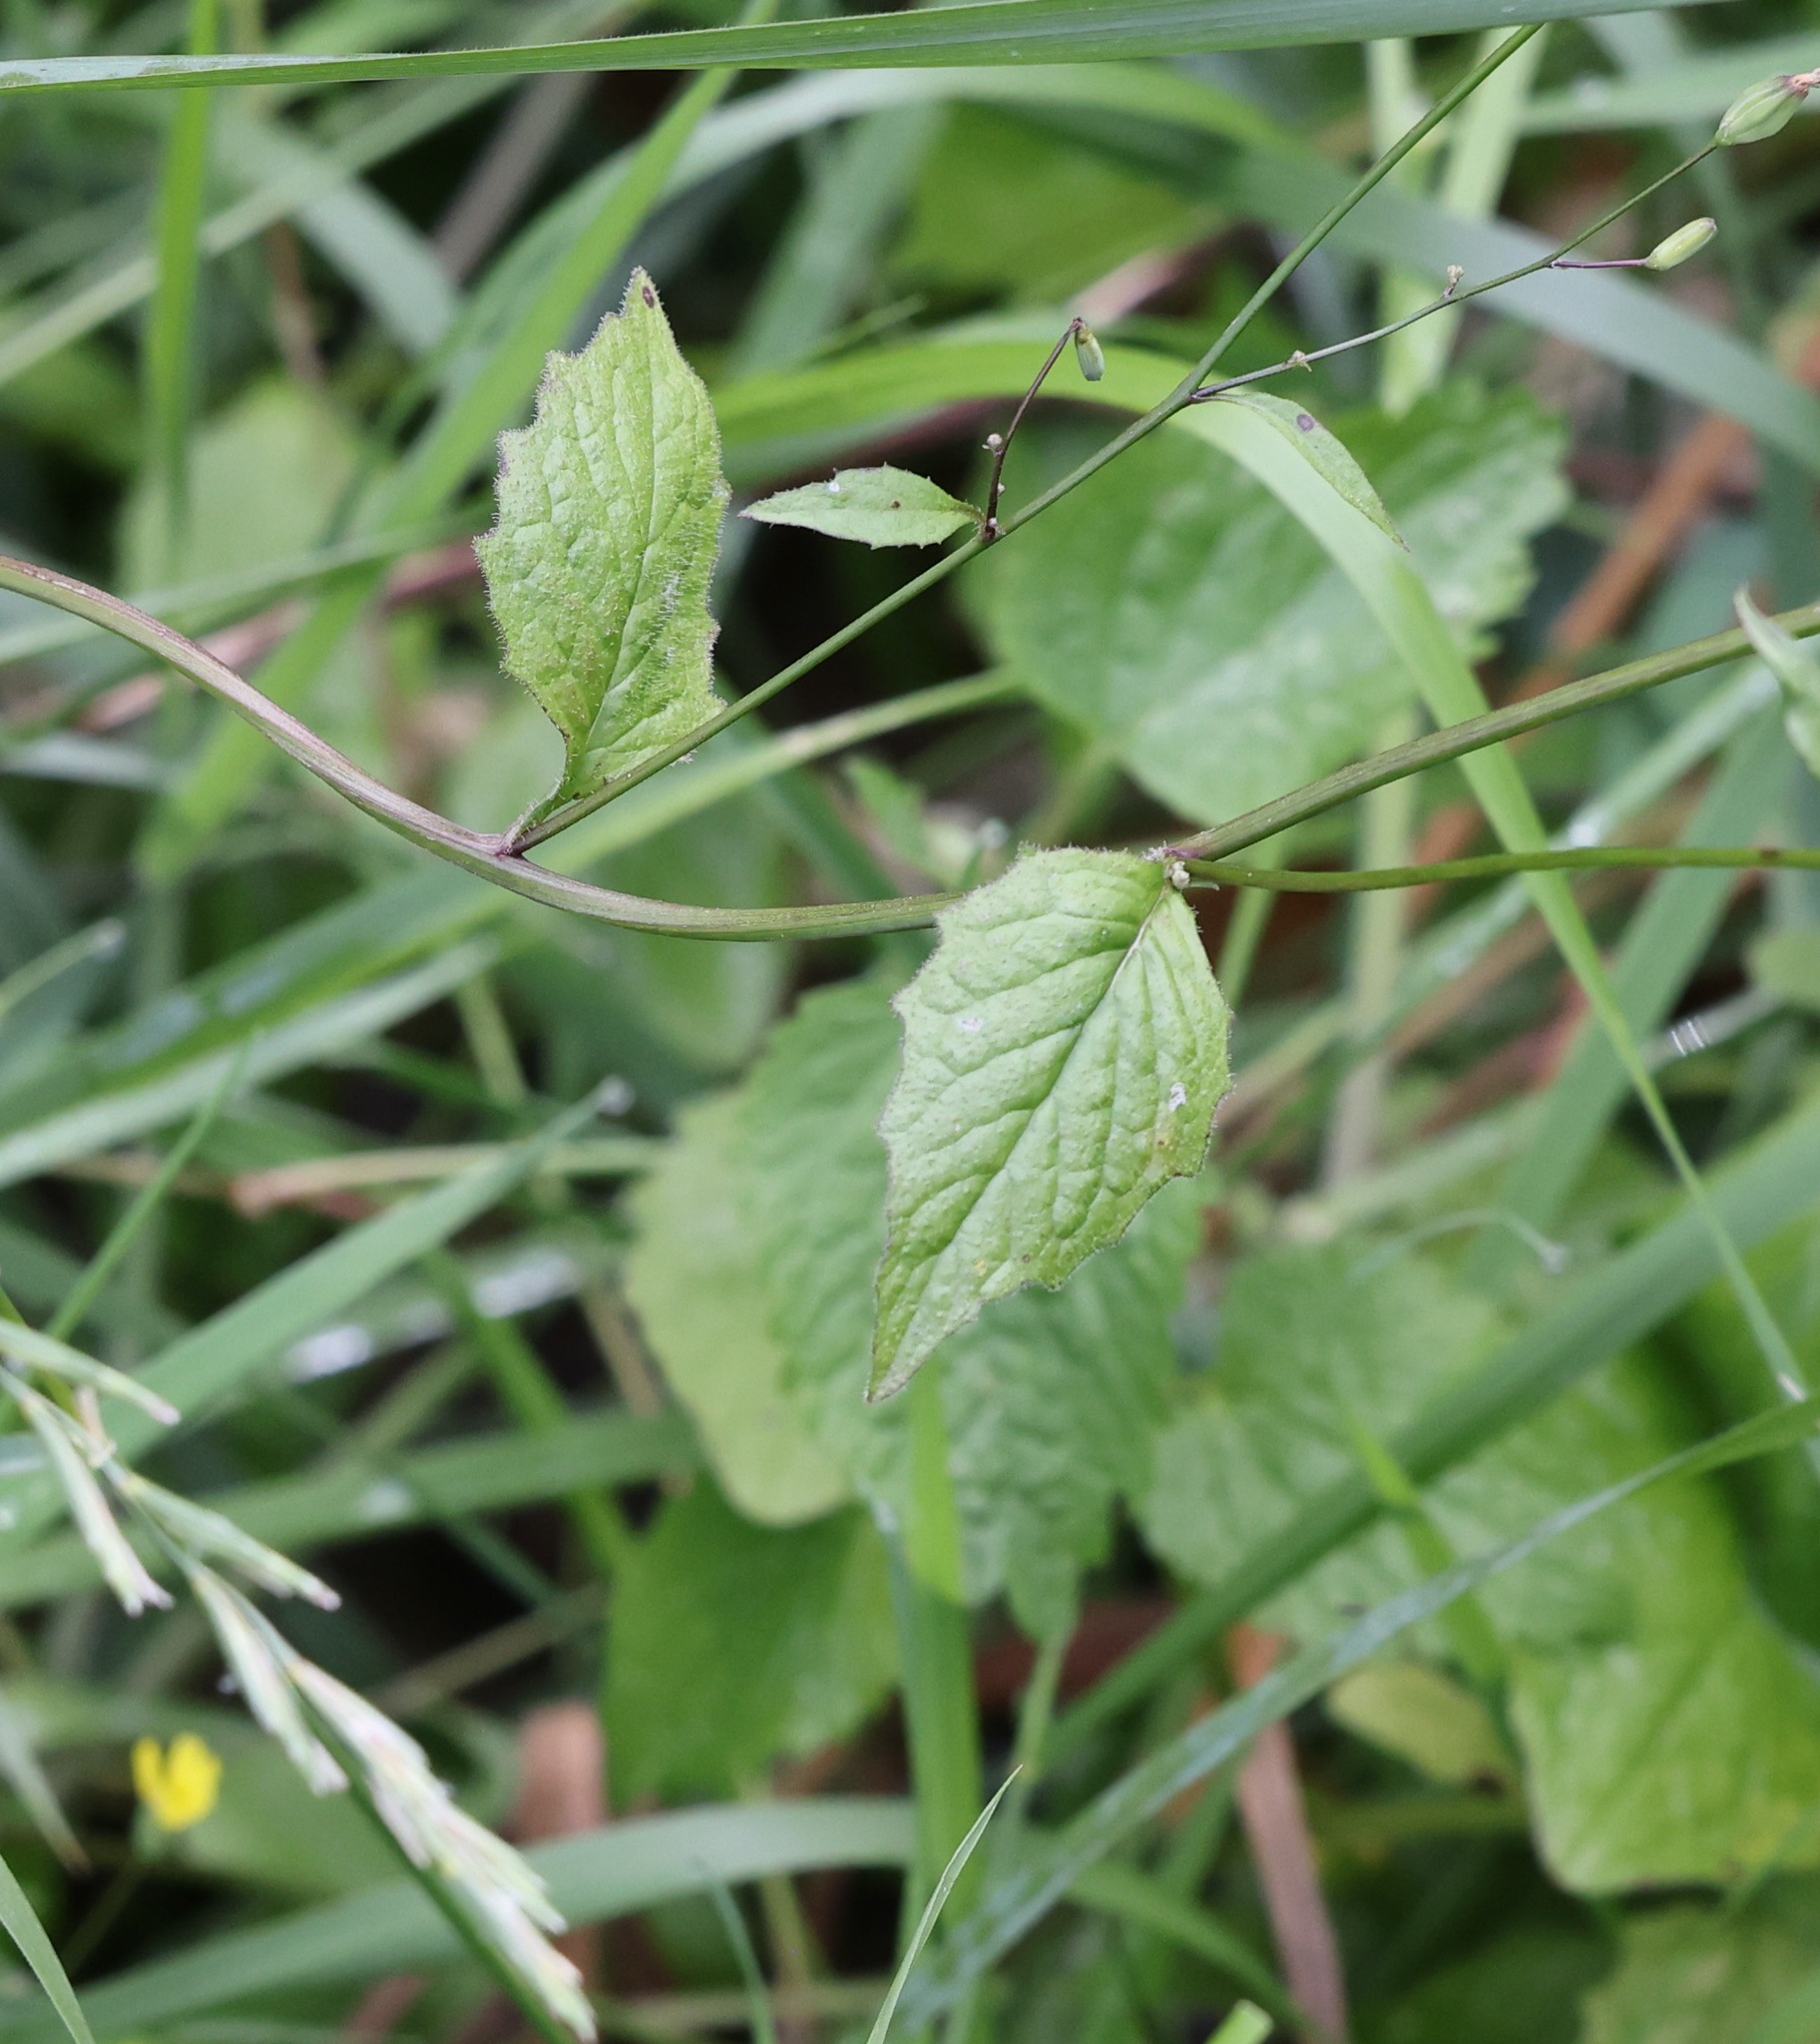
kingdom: Plantae
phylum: Tracheophyta
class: Magnoliopsida
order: Asterales
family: Asteraceae
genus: Lapsana
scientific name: Lapsana communis
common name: Nipplewort
